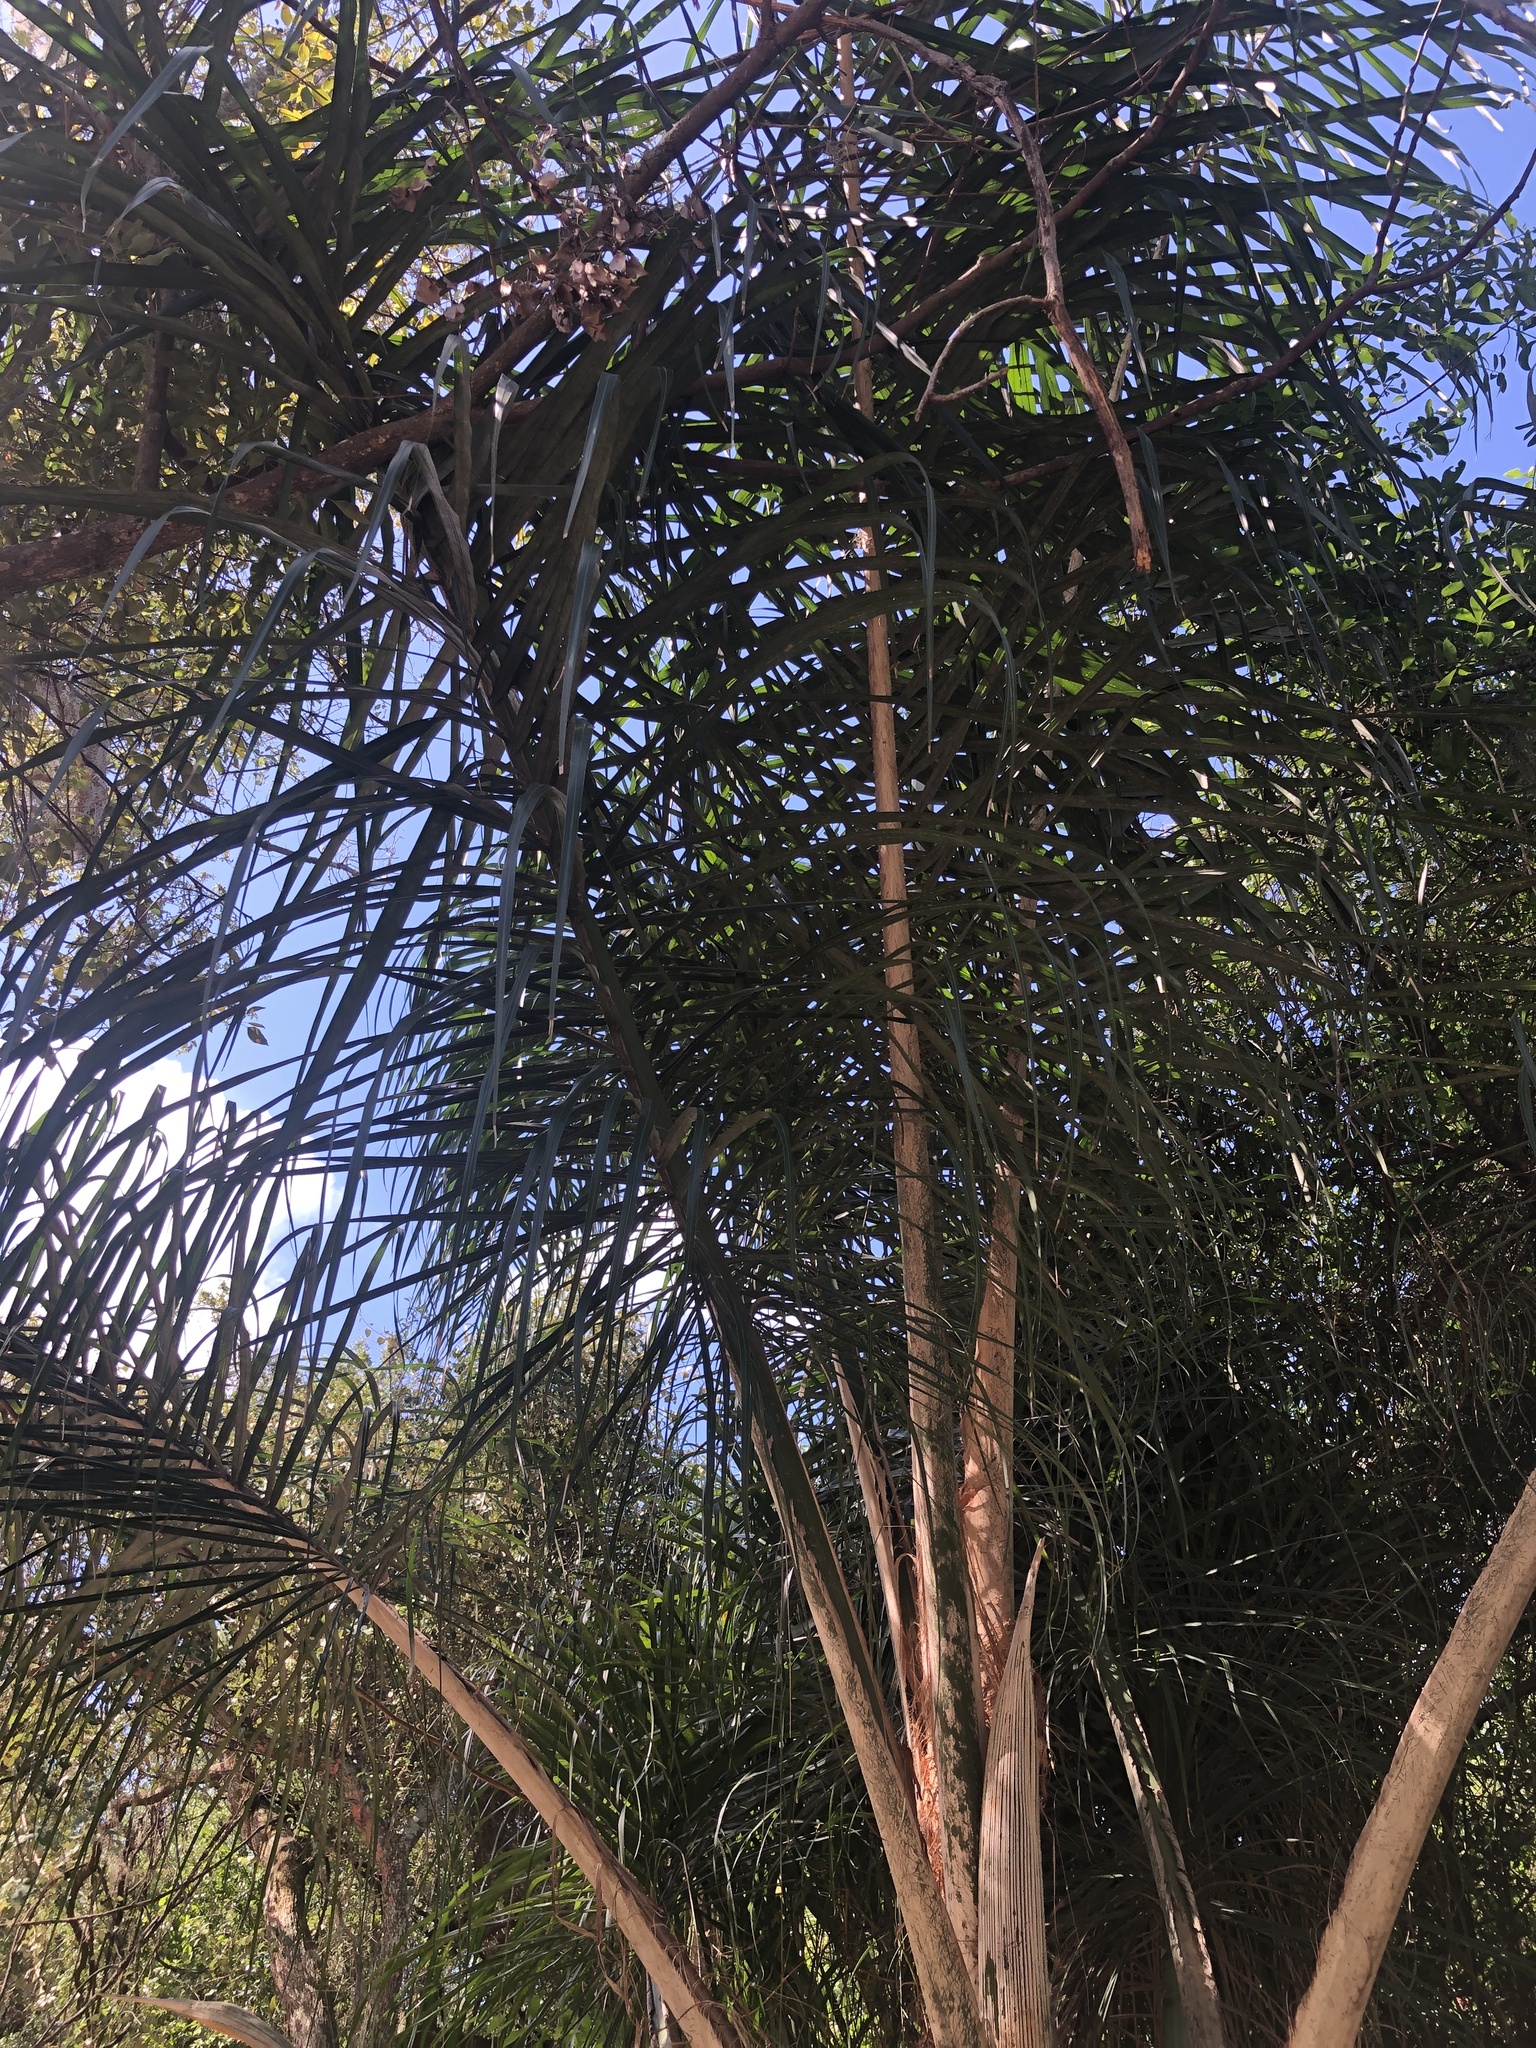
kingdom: Plantae
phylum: Tracheophyta
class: Liliopsida
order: Arecales
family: Arecaceae
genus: Syagrus
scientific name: Syagrus romanzoffiana
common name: Queen palm
